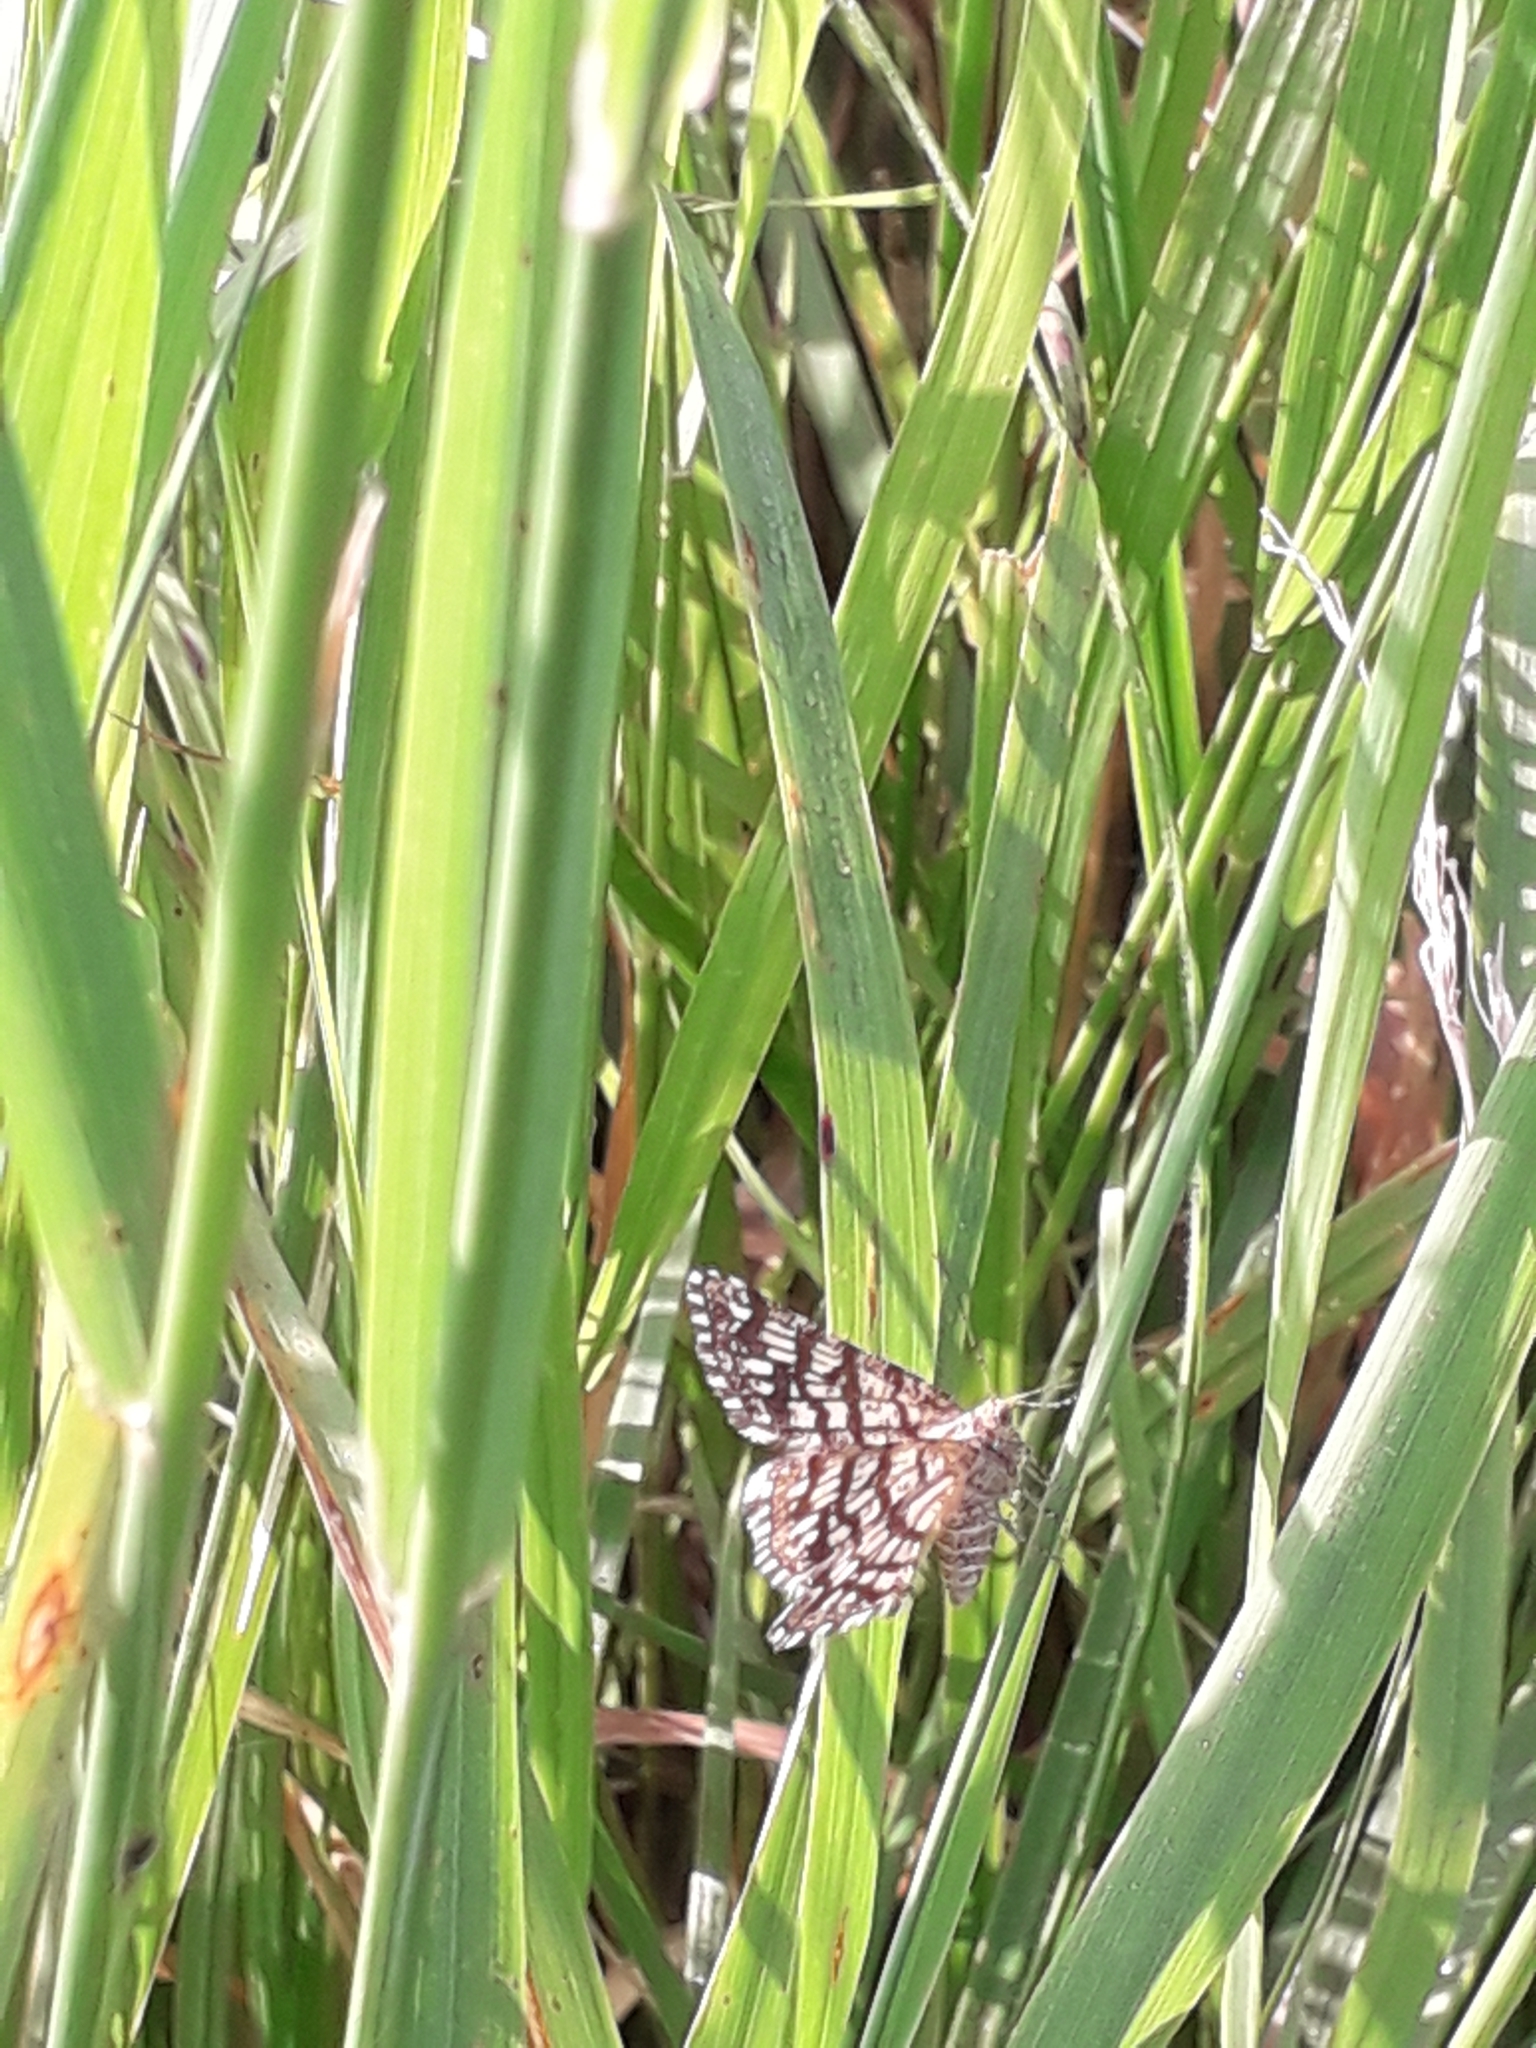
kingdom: Animalia
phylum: Arthropoda
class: Insecta
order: Lepidoptera
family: Geometridae
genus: Chiasmia
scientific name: Chiasmia clathrata
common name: Latticed heath
